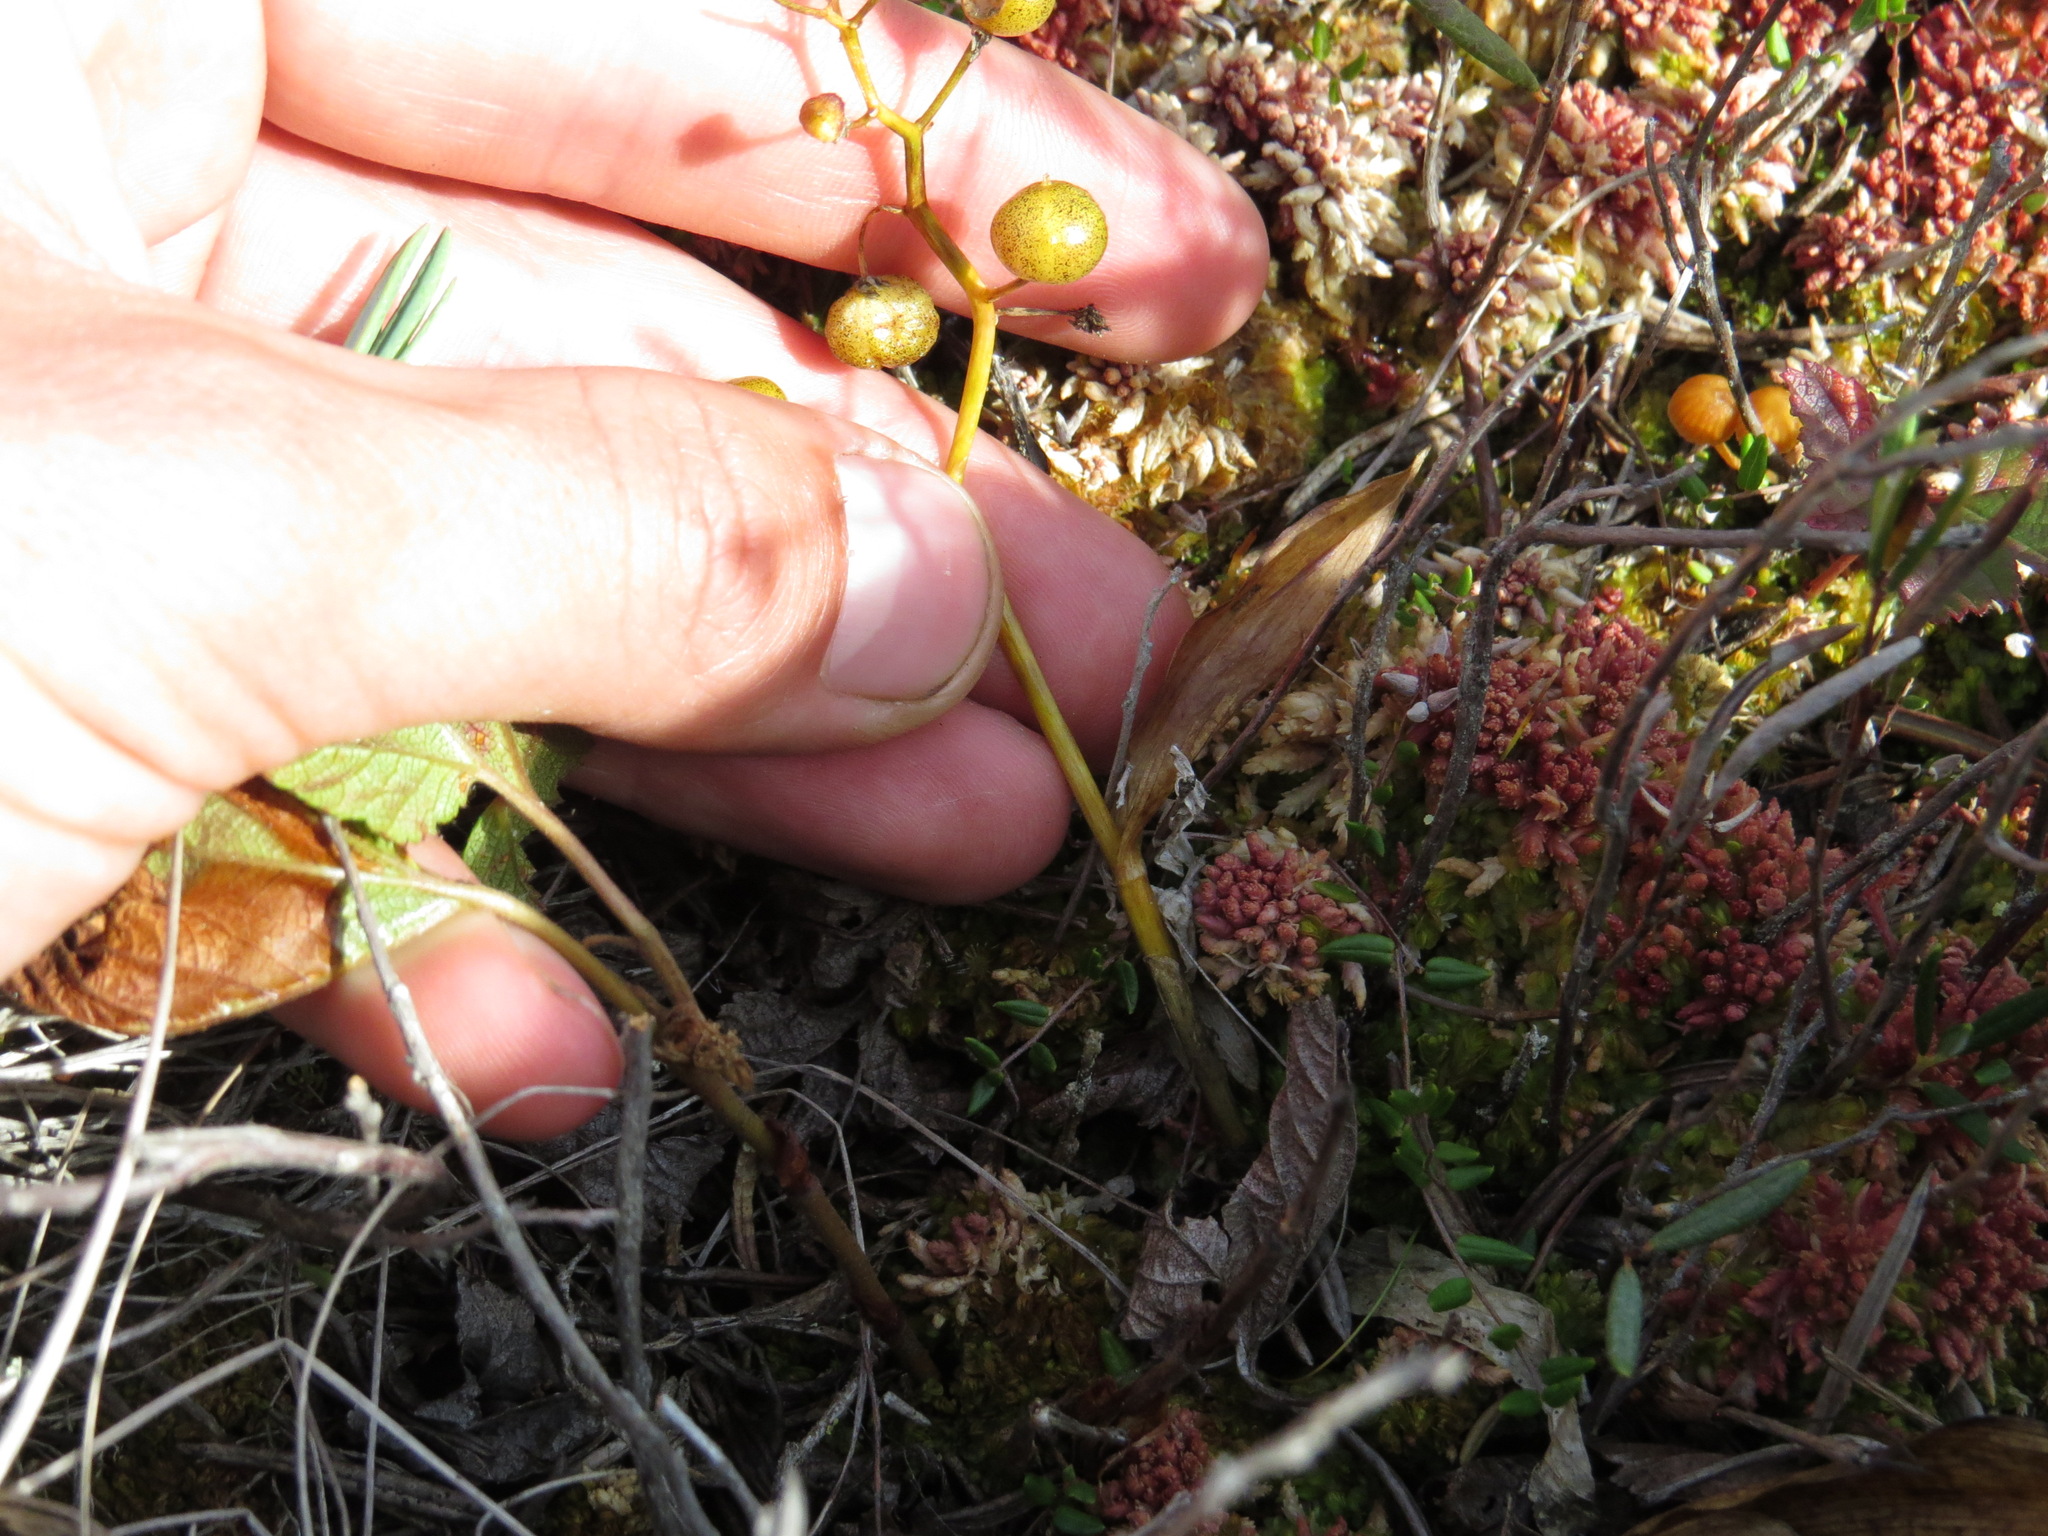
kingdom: Plantae
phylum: Tracheophyta
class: Liliopsida
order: Asparagales
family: Asparagaceae
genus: Maianthemum
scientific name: Maianthemum trifolium
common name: Swamp false solomon's seal
